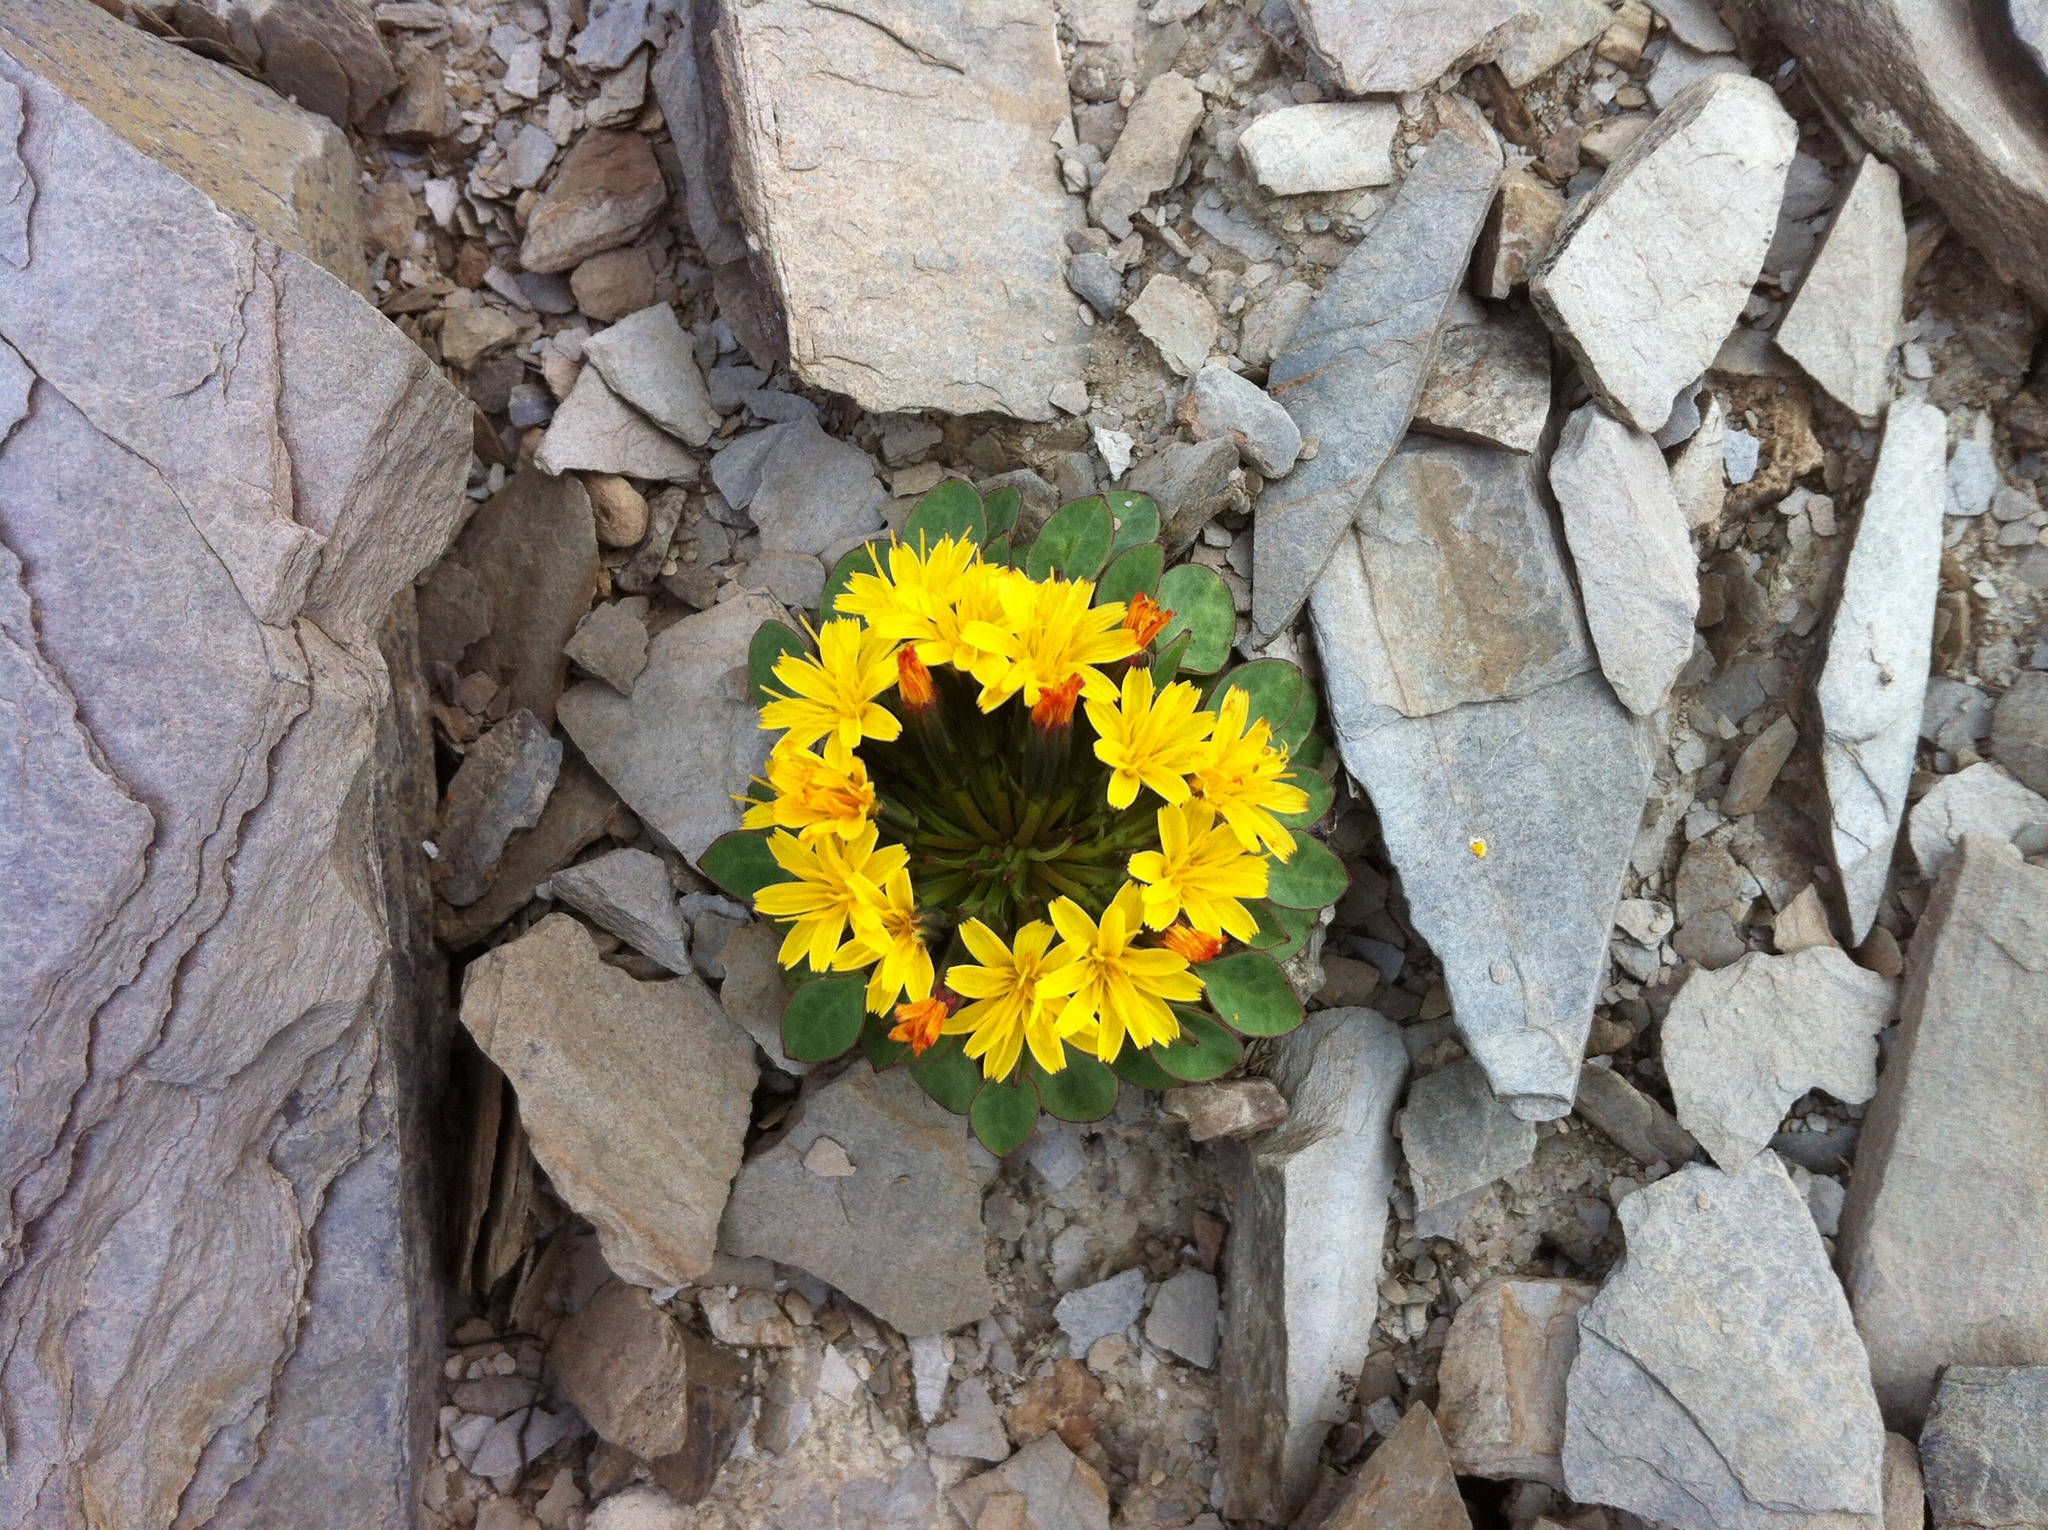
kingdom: Plantae
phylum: Tracheophyta
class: Magnoliopsida
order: Asterales
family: Asteraceae
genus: Askellia
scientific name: Askellia pygmaea
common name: Dwarf alpine hawksbeard
